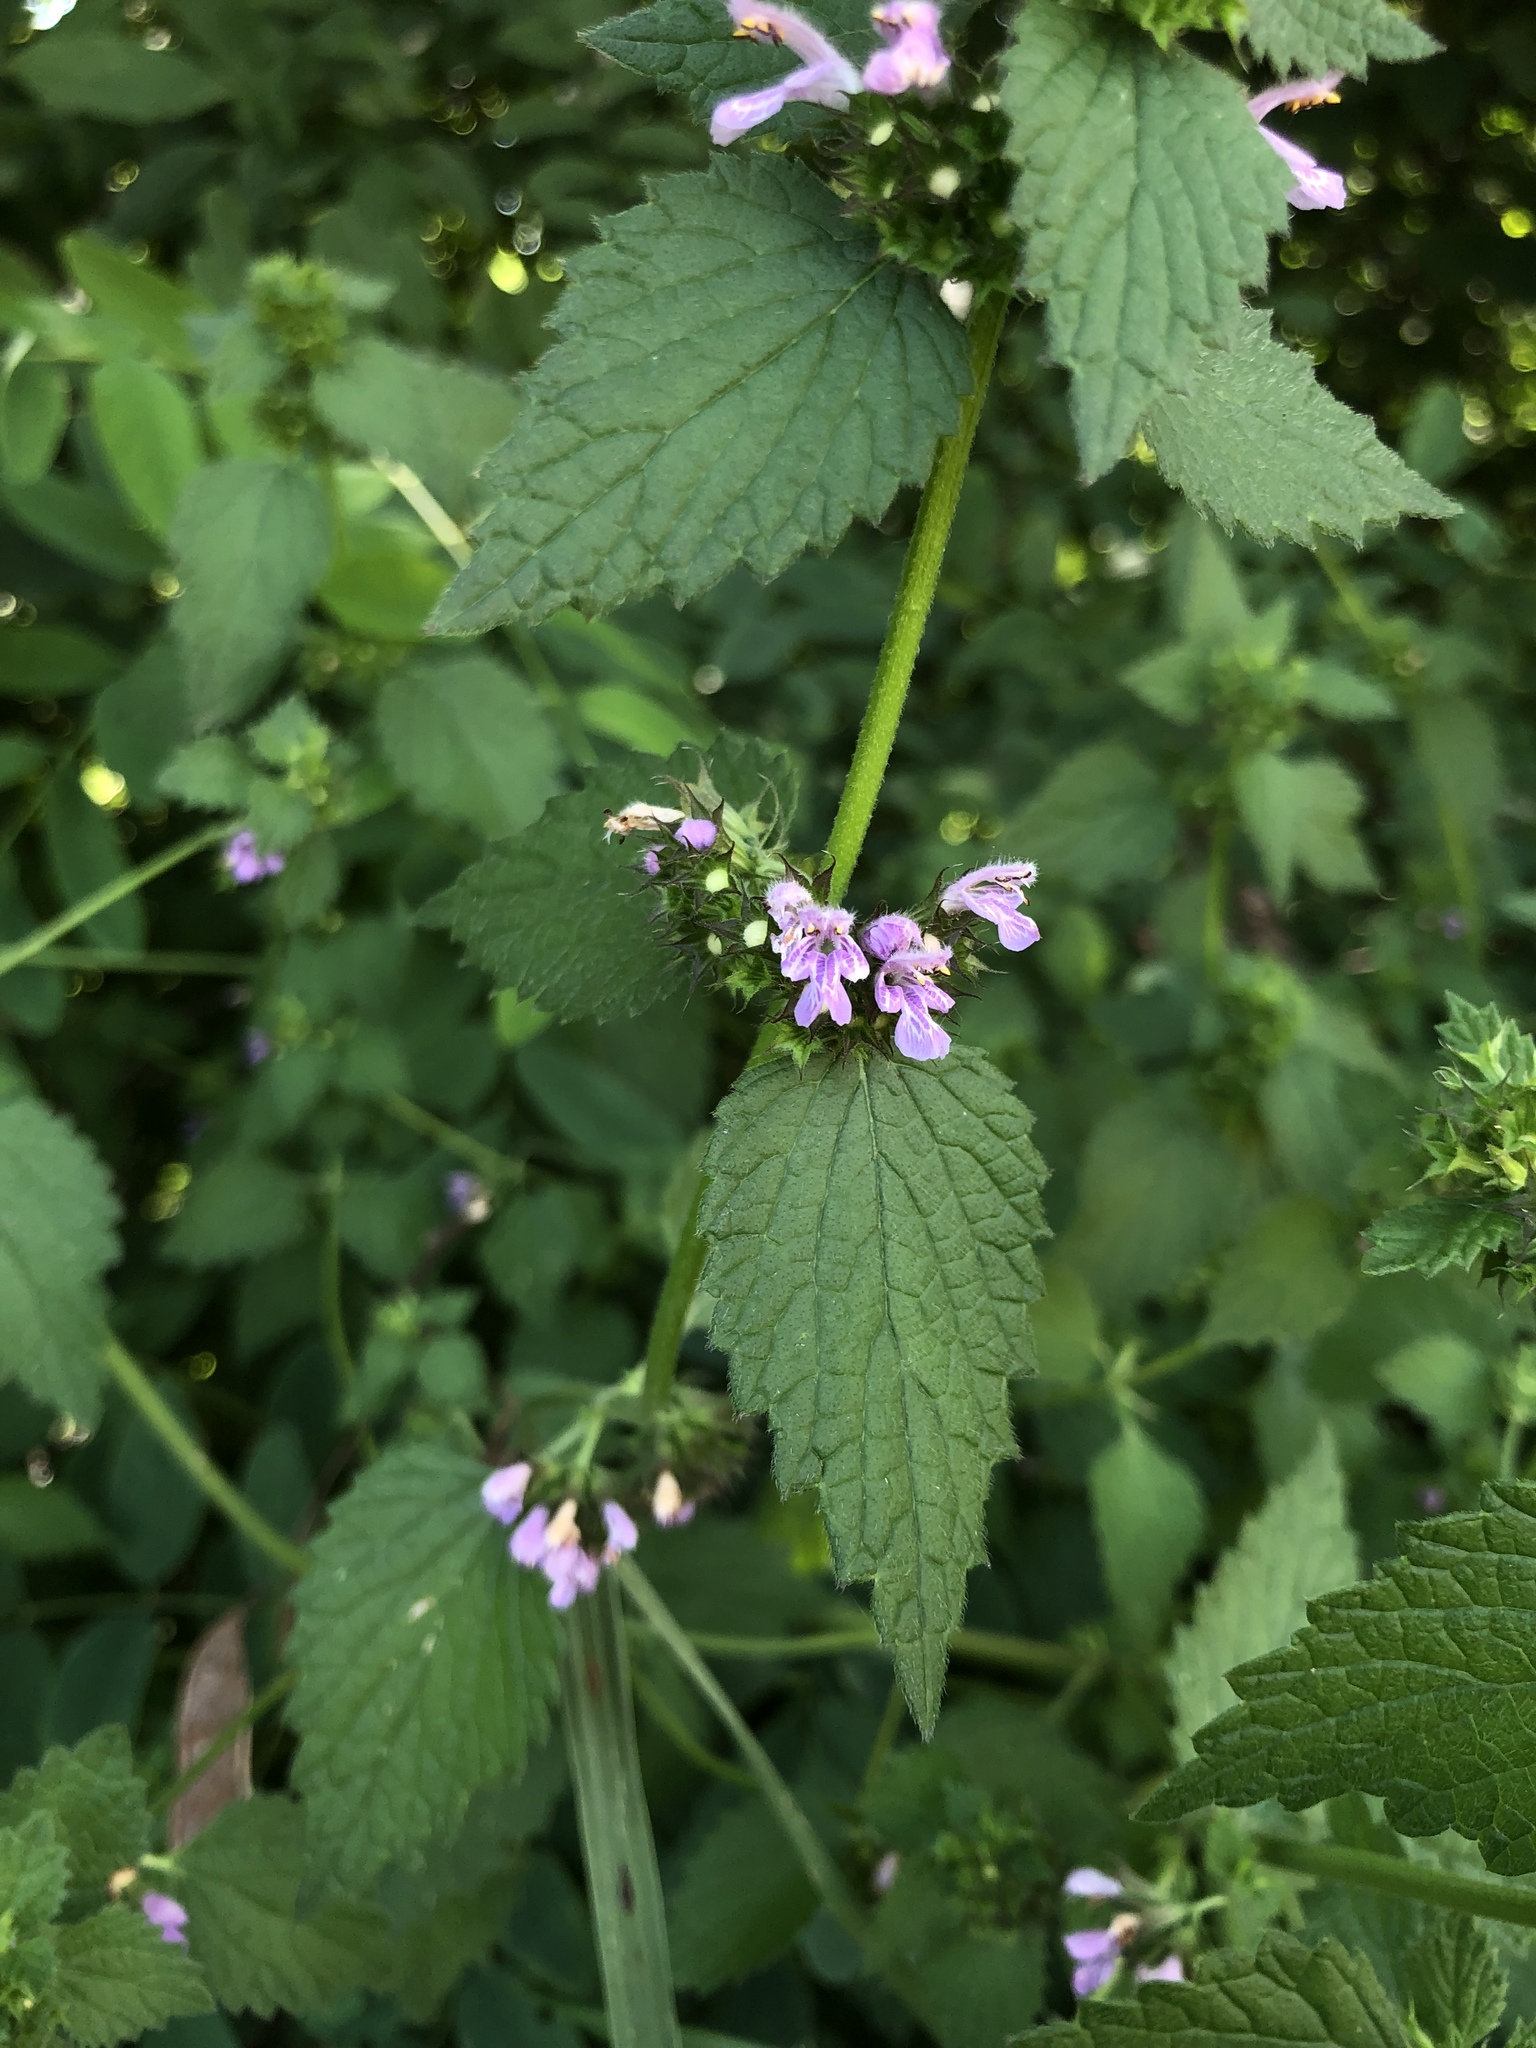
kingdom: Plantae
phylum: Tracheophyta
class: Magnoliopsida
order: Lamiales
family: Lamiaceae
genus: Ballota
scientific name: Ballota nigra
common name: Black horehound
